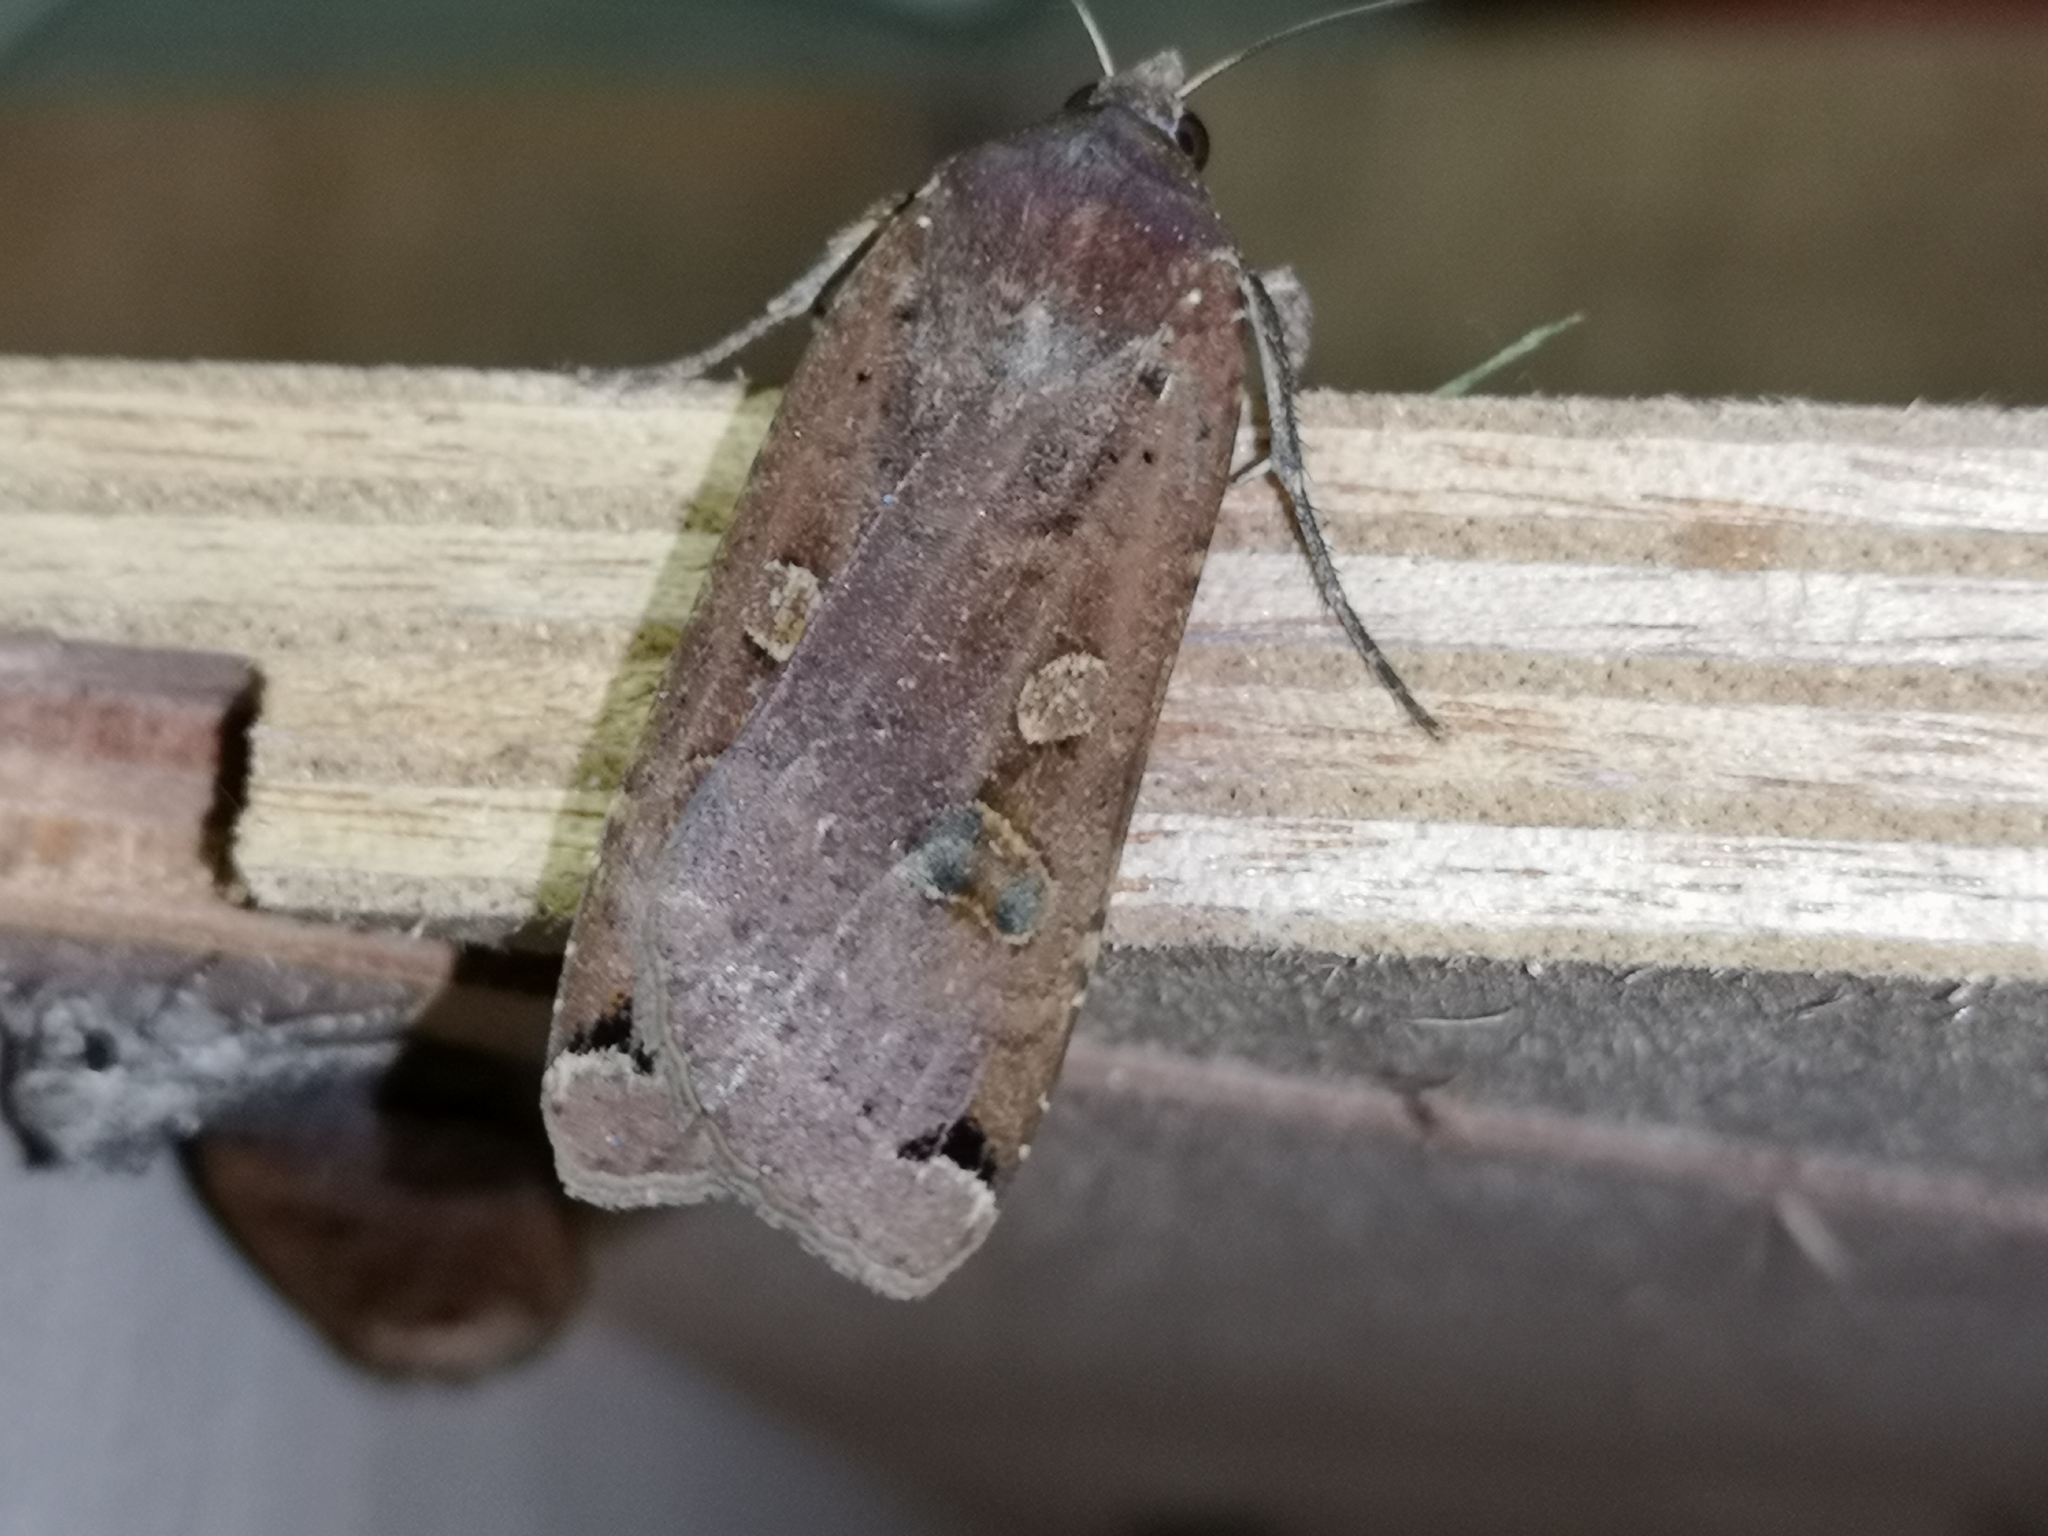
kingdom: Animalia
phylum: Arthropoda
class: Insecta
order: Lepidoptera
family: Noctuidae
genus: Noctua
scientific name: Noctua pronuba
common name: Large yellow underwing
